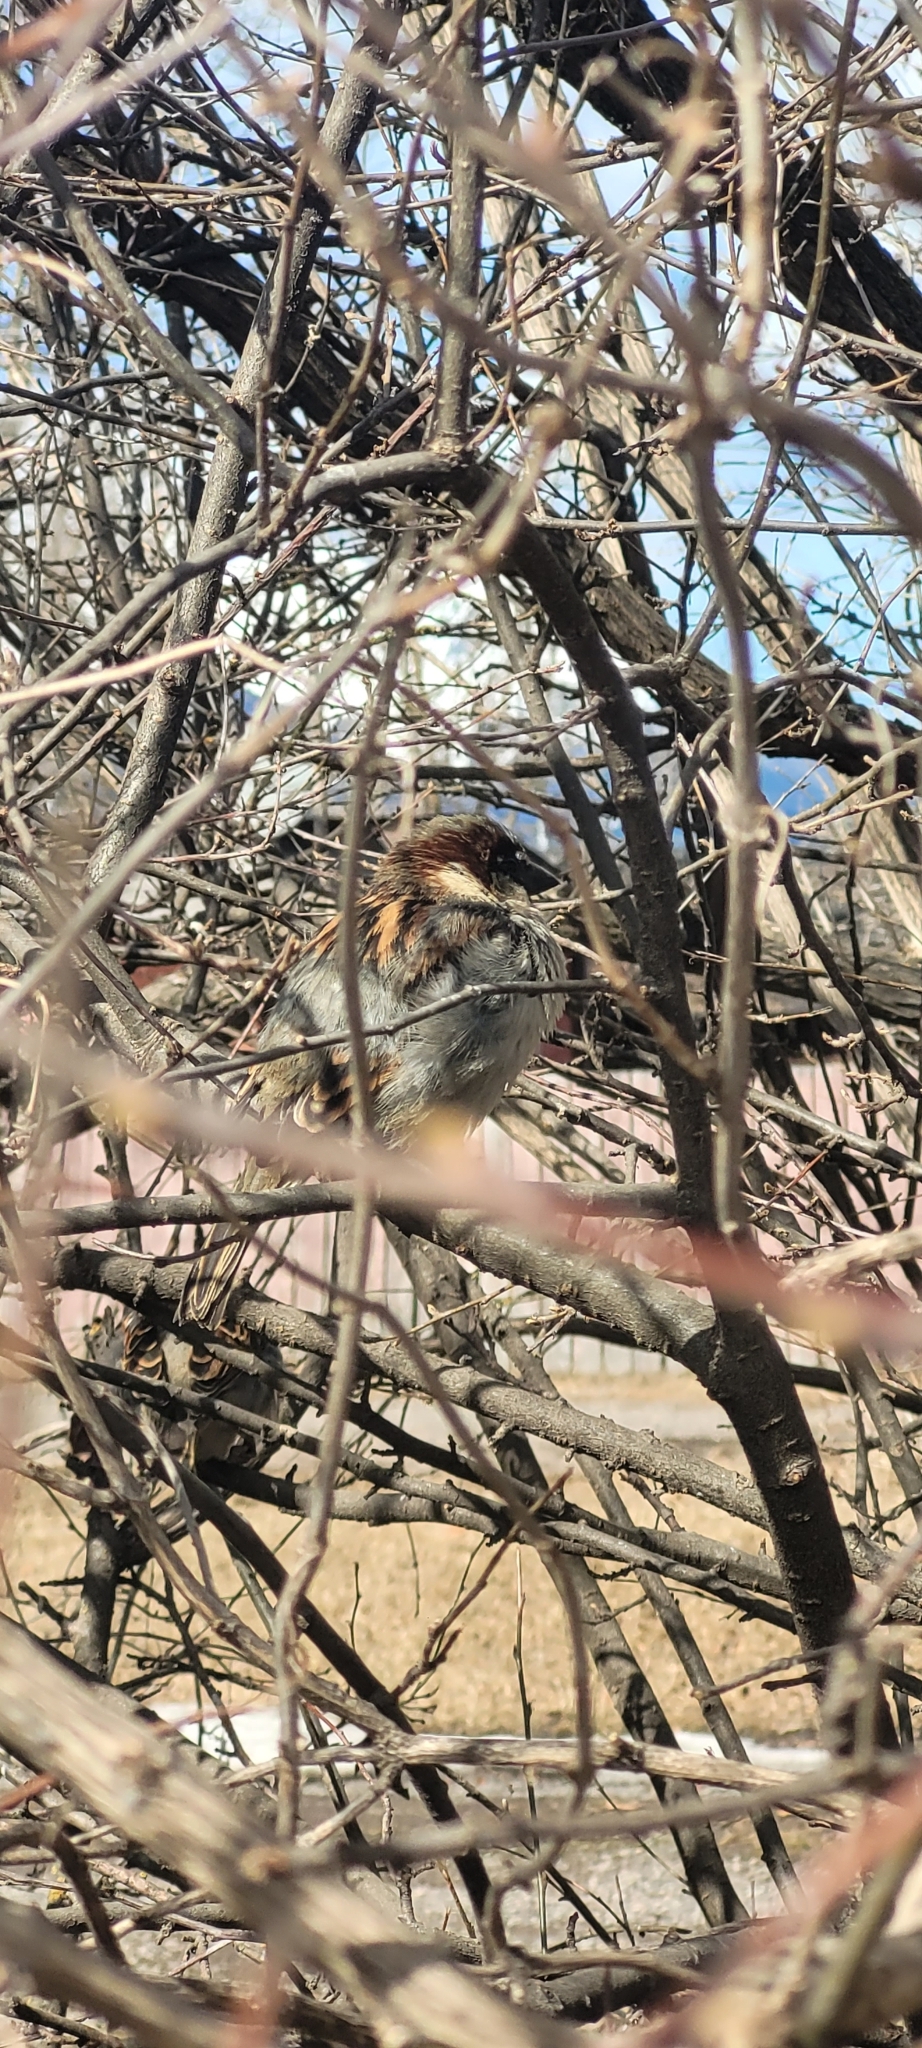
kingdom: Animalia
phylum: Chordata
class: Aves
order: Passeriformes
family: Passeridae
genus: Passer
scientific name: Passer domesticus
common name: House sparrow
